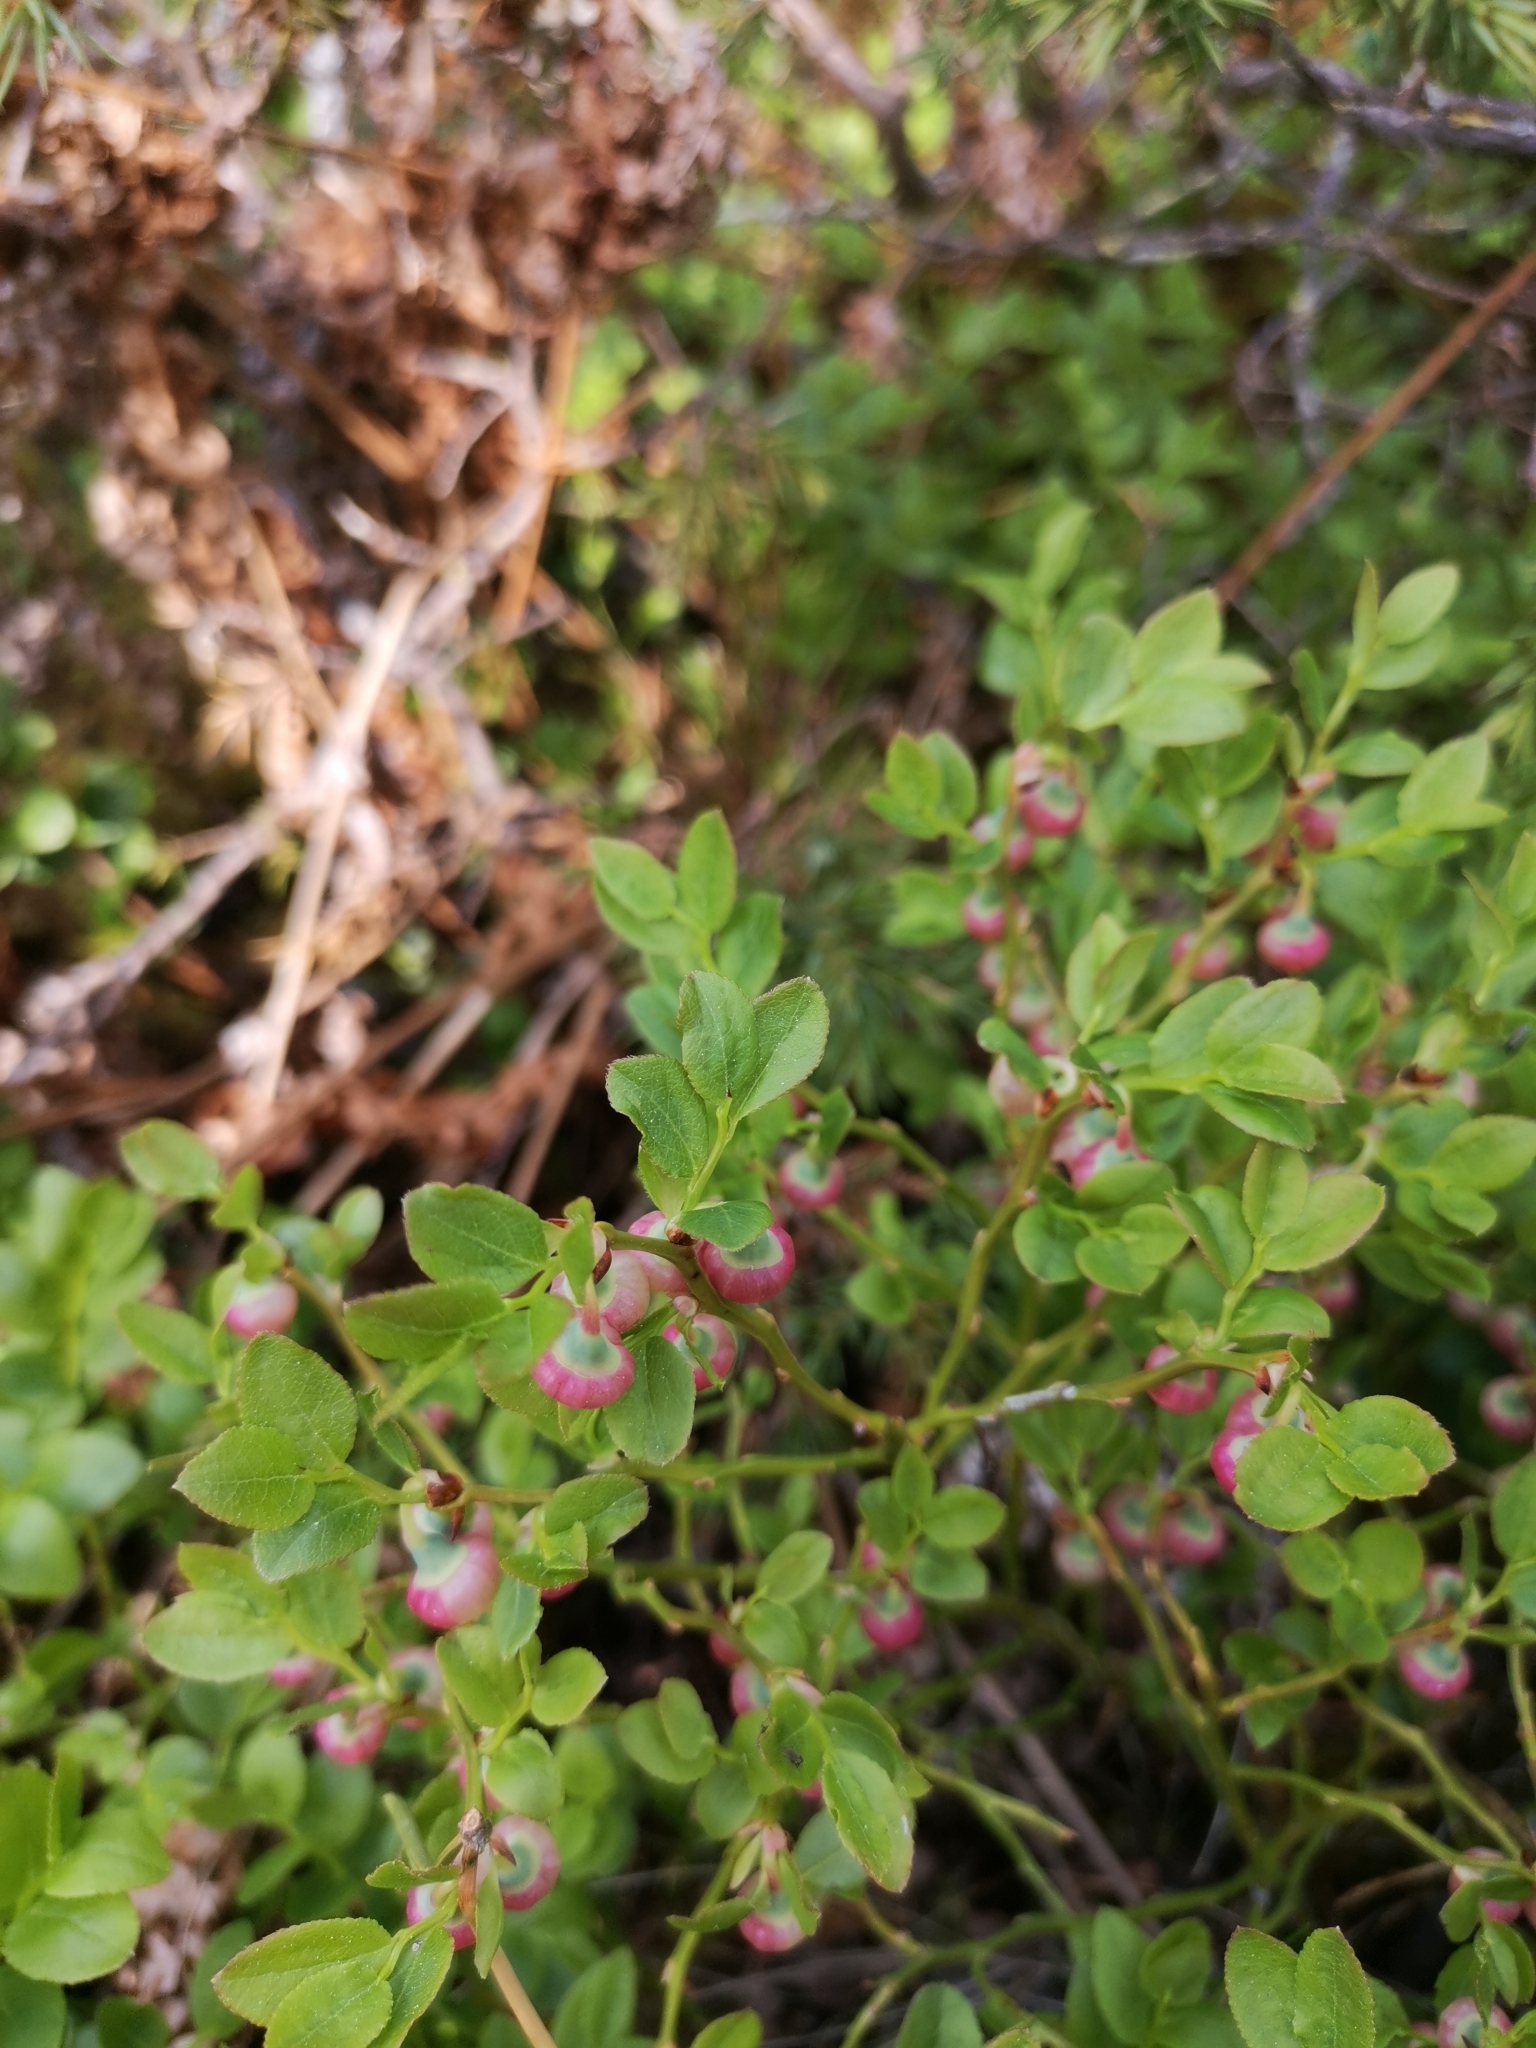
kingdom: Plantae
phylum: Tracheophyta
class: Magnoliopsida
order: Ericales
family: Ericaceae
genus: Vaccinium
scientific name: Vaccinium myrtillus
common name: Bilberry
